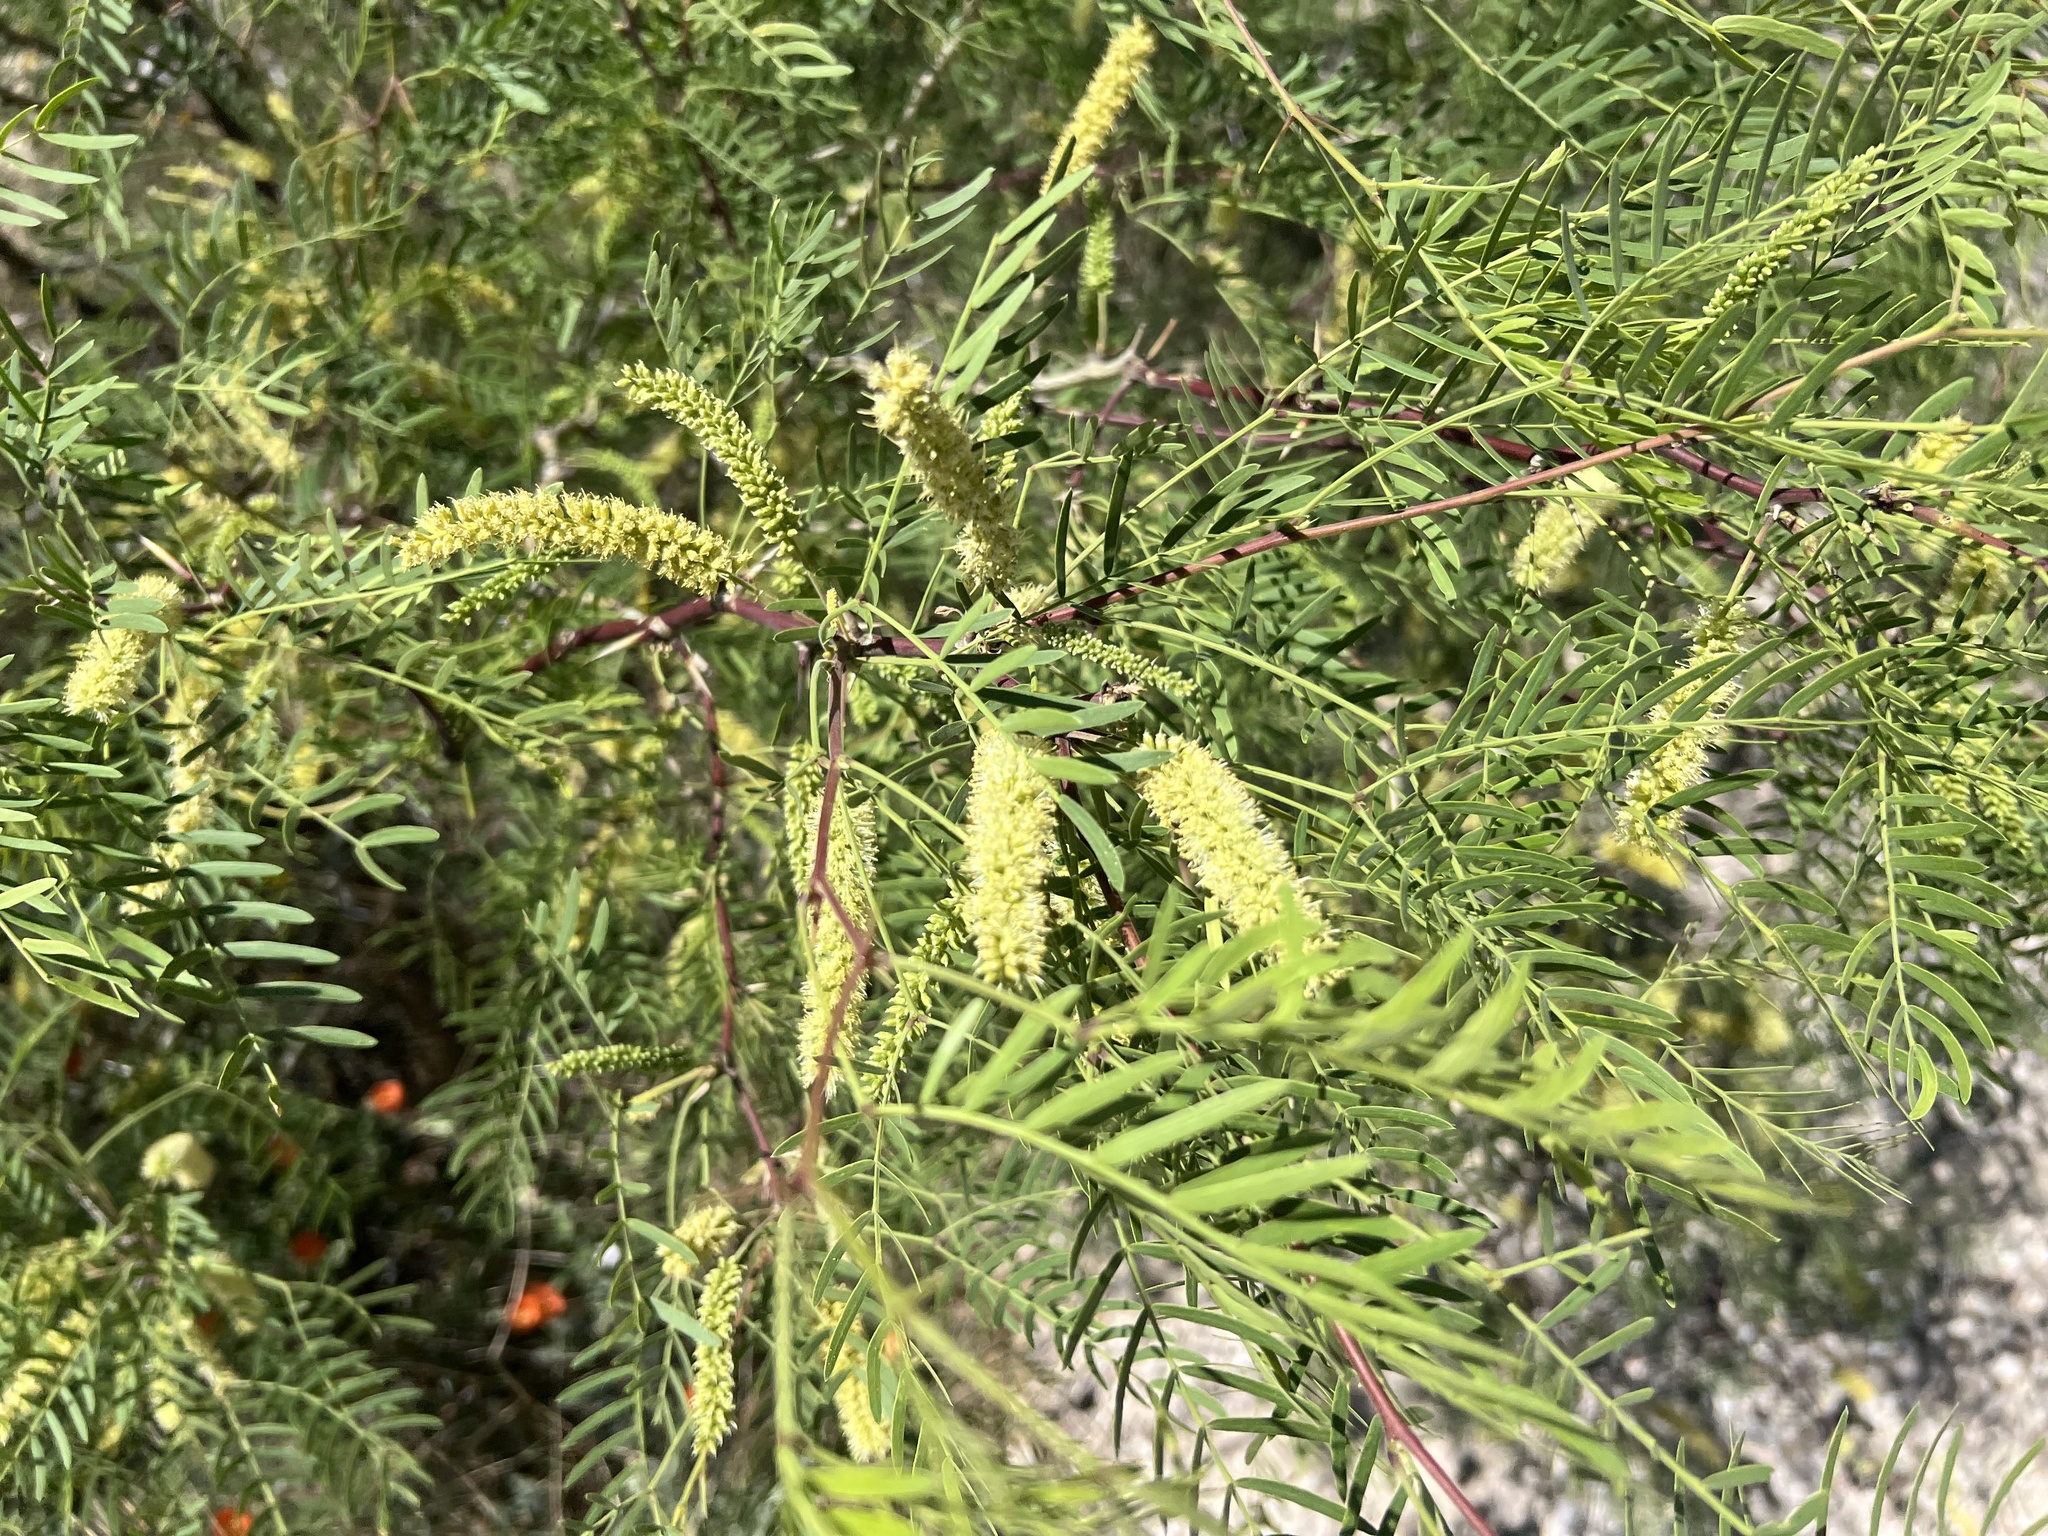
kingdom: Plantae
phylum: Tracheophyta
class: Magnoliopsida
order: Fabales
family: Fabaceae
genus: Prosopis
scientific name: Prosopis glandulosa
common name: Honey mesquite
